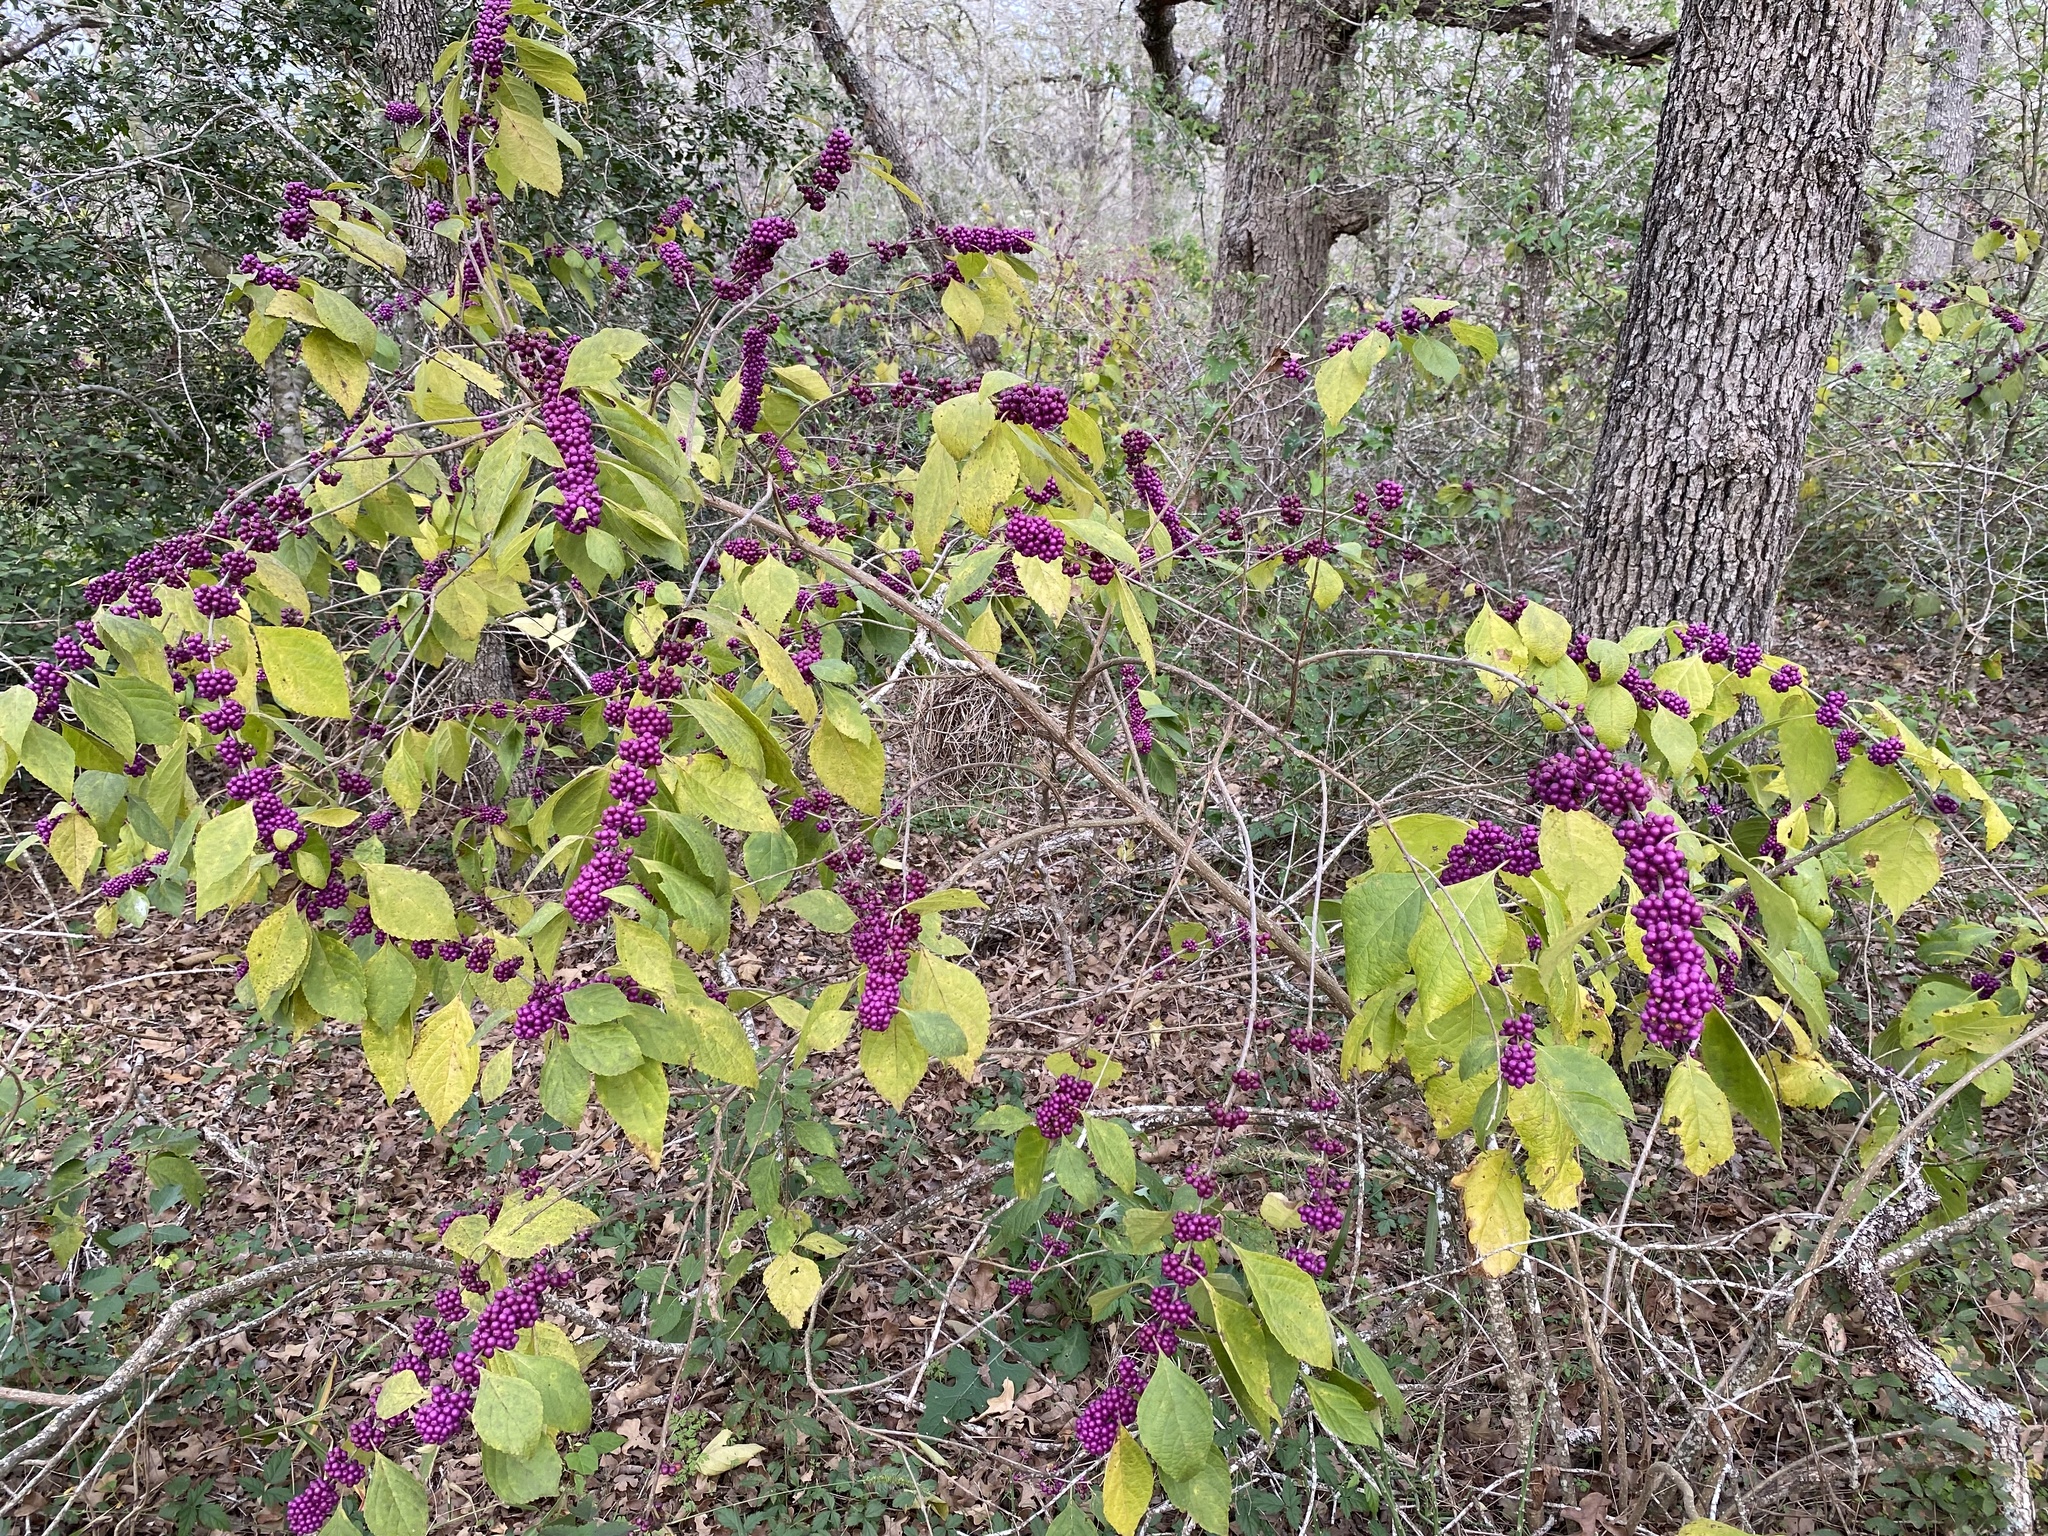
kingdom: Plantae
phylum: Tracheophyta
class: Magnoliopsida
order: Lamiales
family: Lamiaceae
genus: Callicarpa
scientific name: Callicarpa americana
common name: American beautyberry
